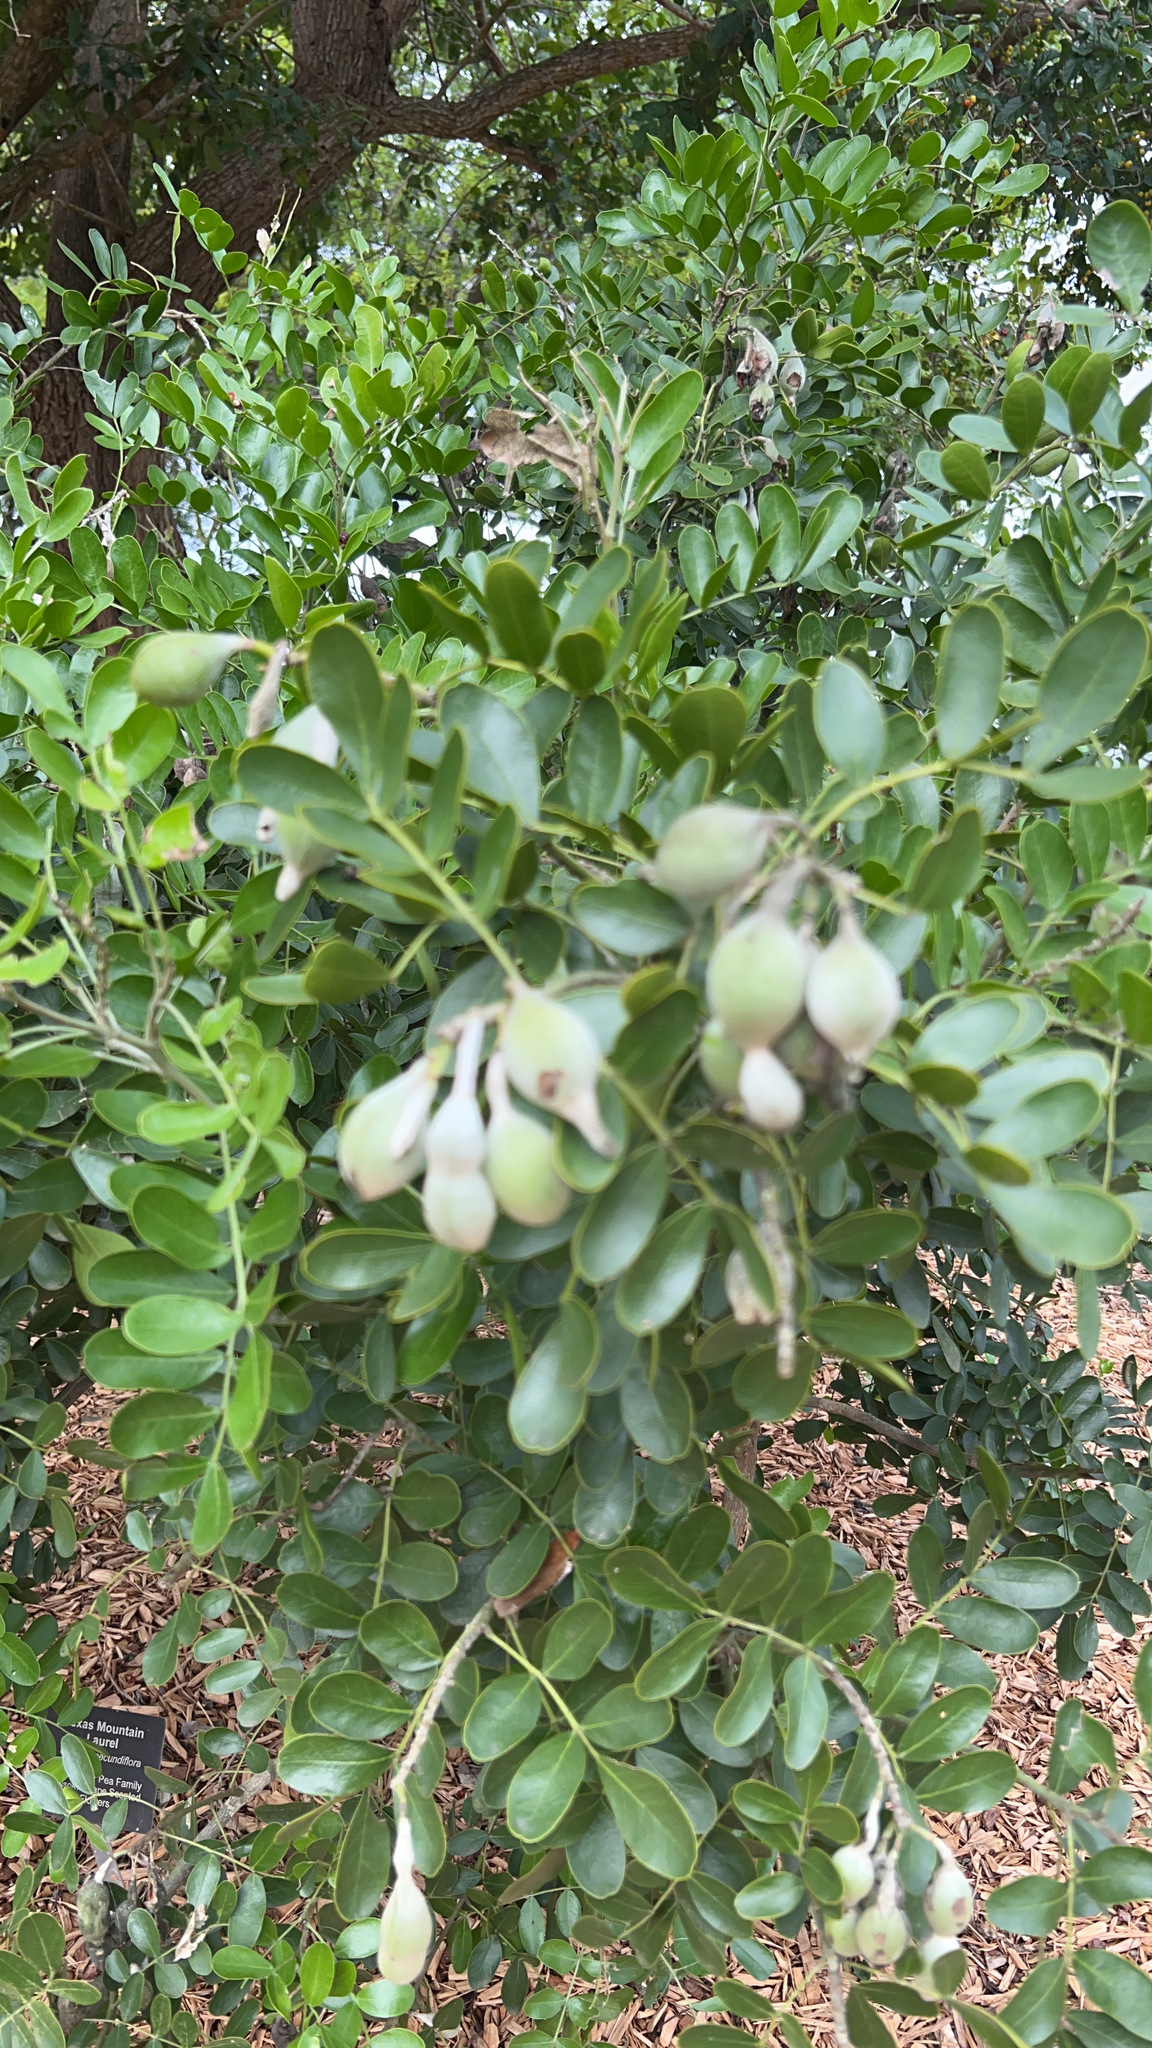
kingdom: Plantae
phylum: Tracheophyta
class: Magnoliopsida
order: Fabales
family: Fabaceae
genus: Dermatophyllum
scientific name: Dermatophyllum secundiflorum
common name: Texas-mountain-laurel
